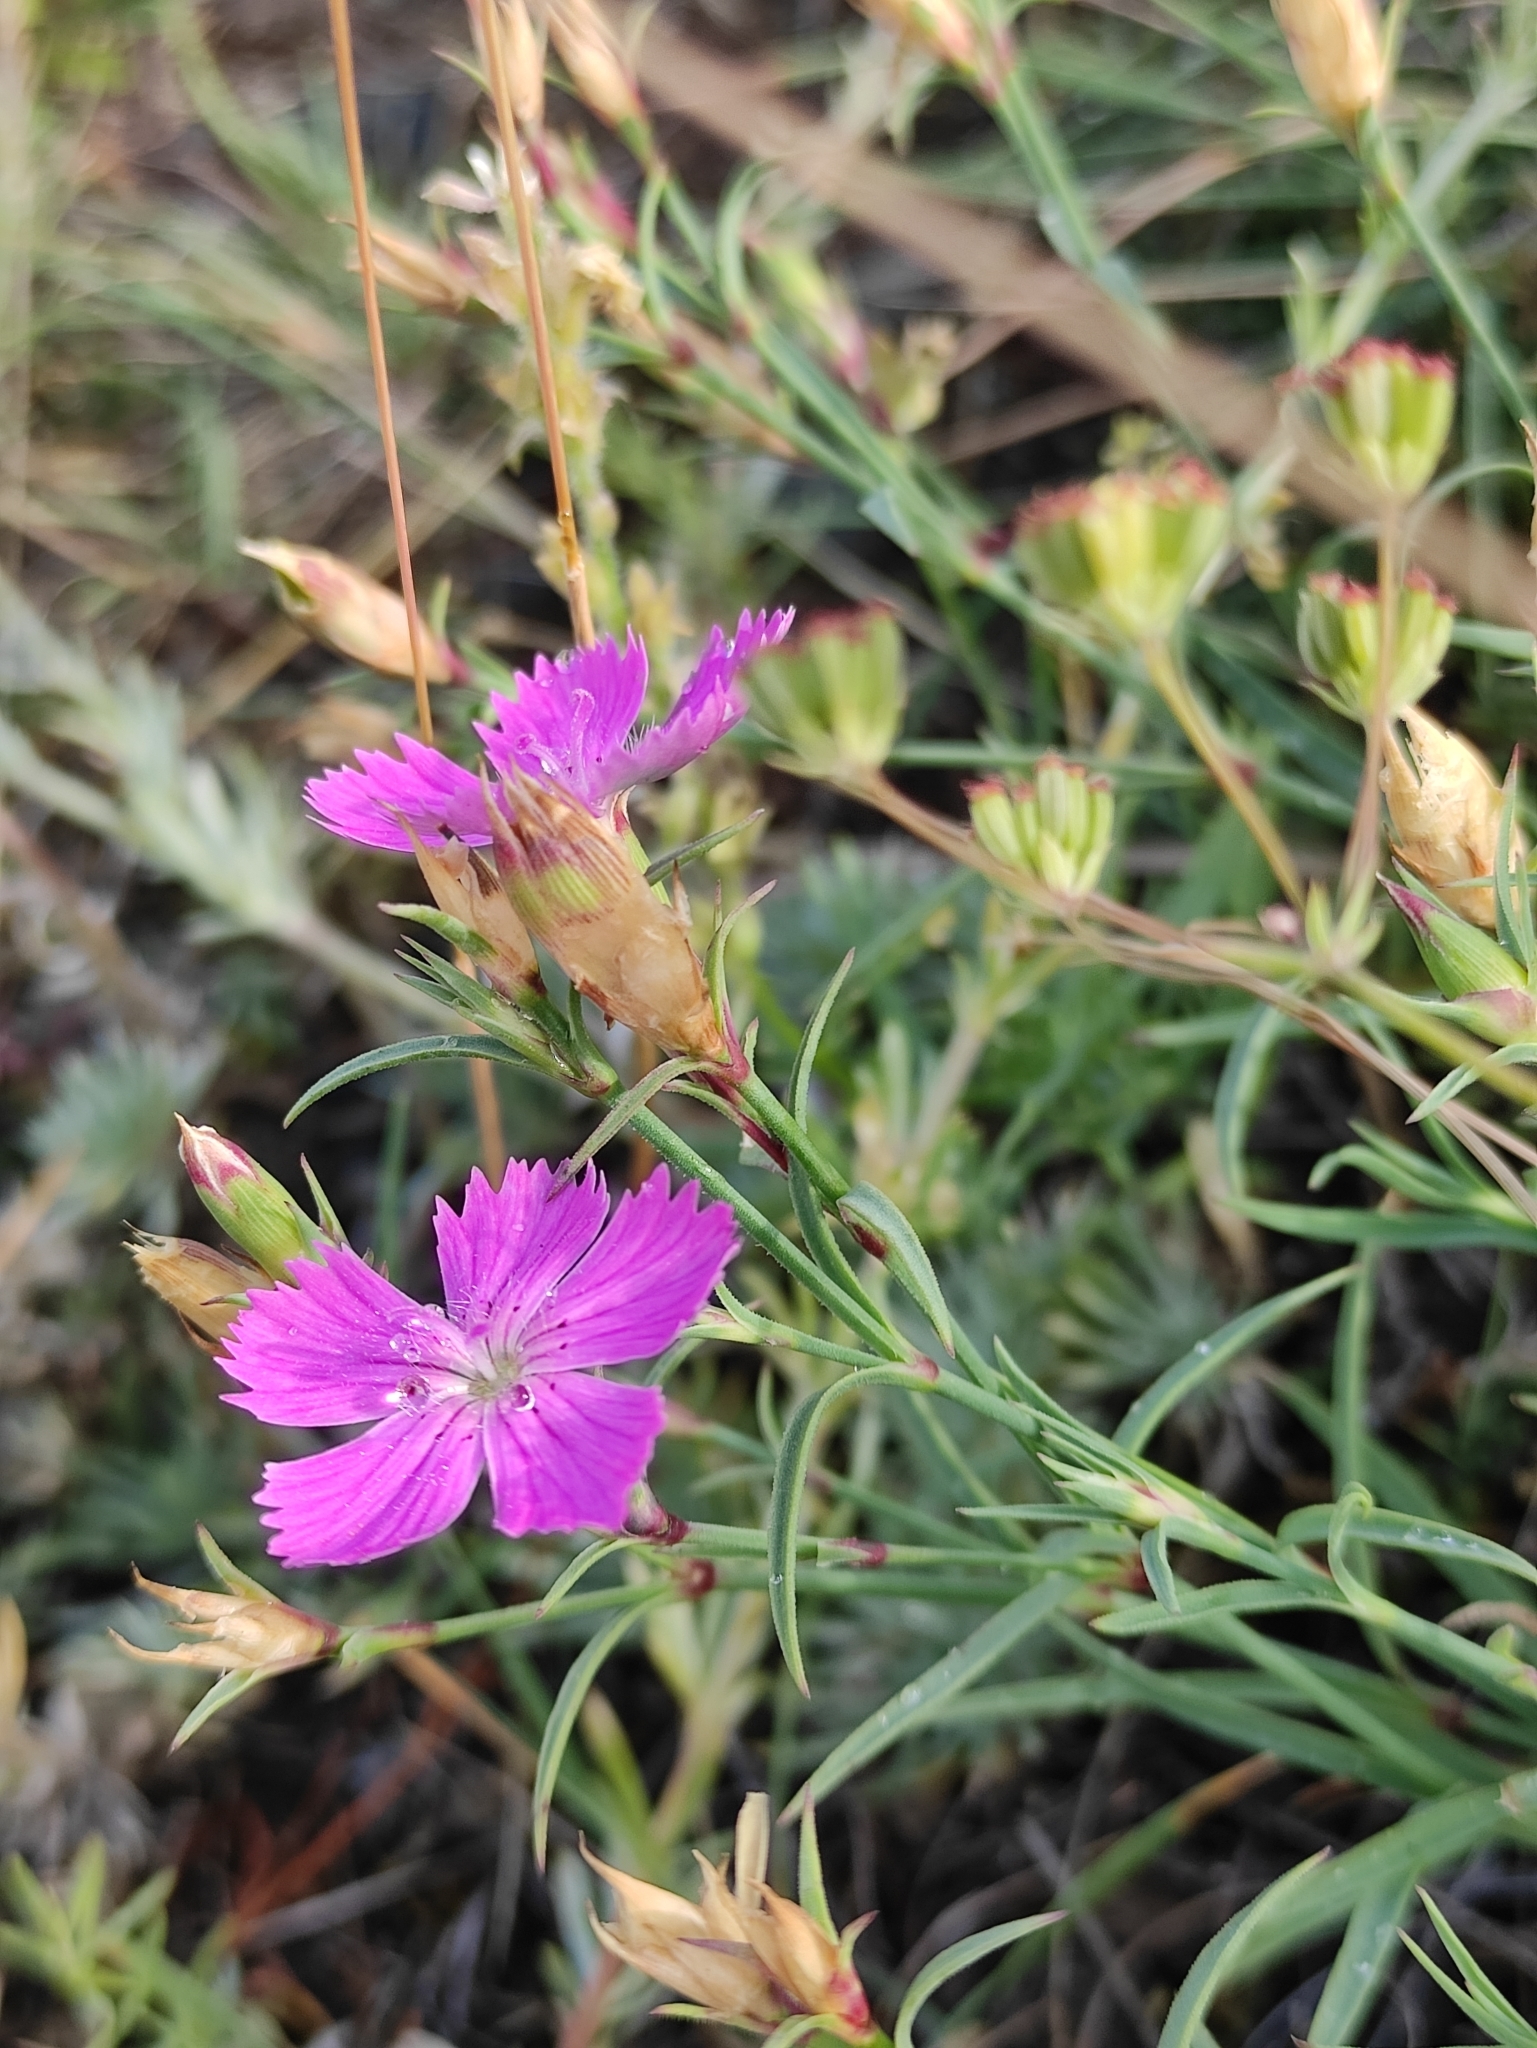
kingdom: Plantae
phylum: Tracheophyta
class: Magnoliopsida
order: Caryophyllales
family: Caryophyllaceae
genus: Dianthus
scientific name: Dianthus chinensis
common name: Rainbow pink
